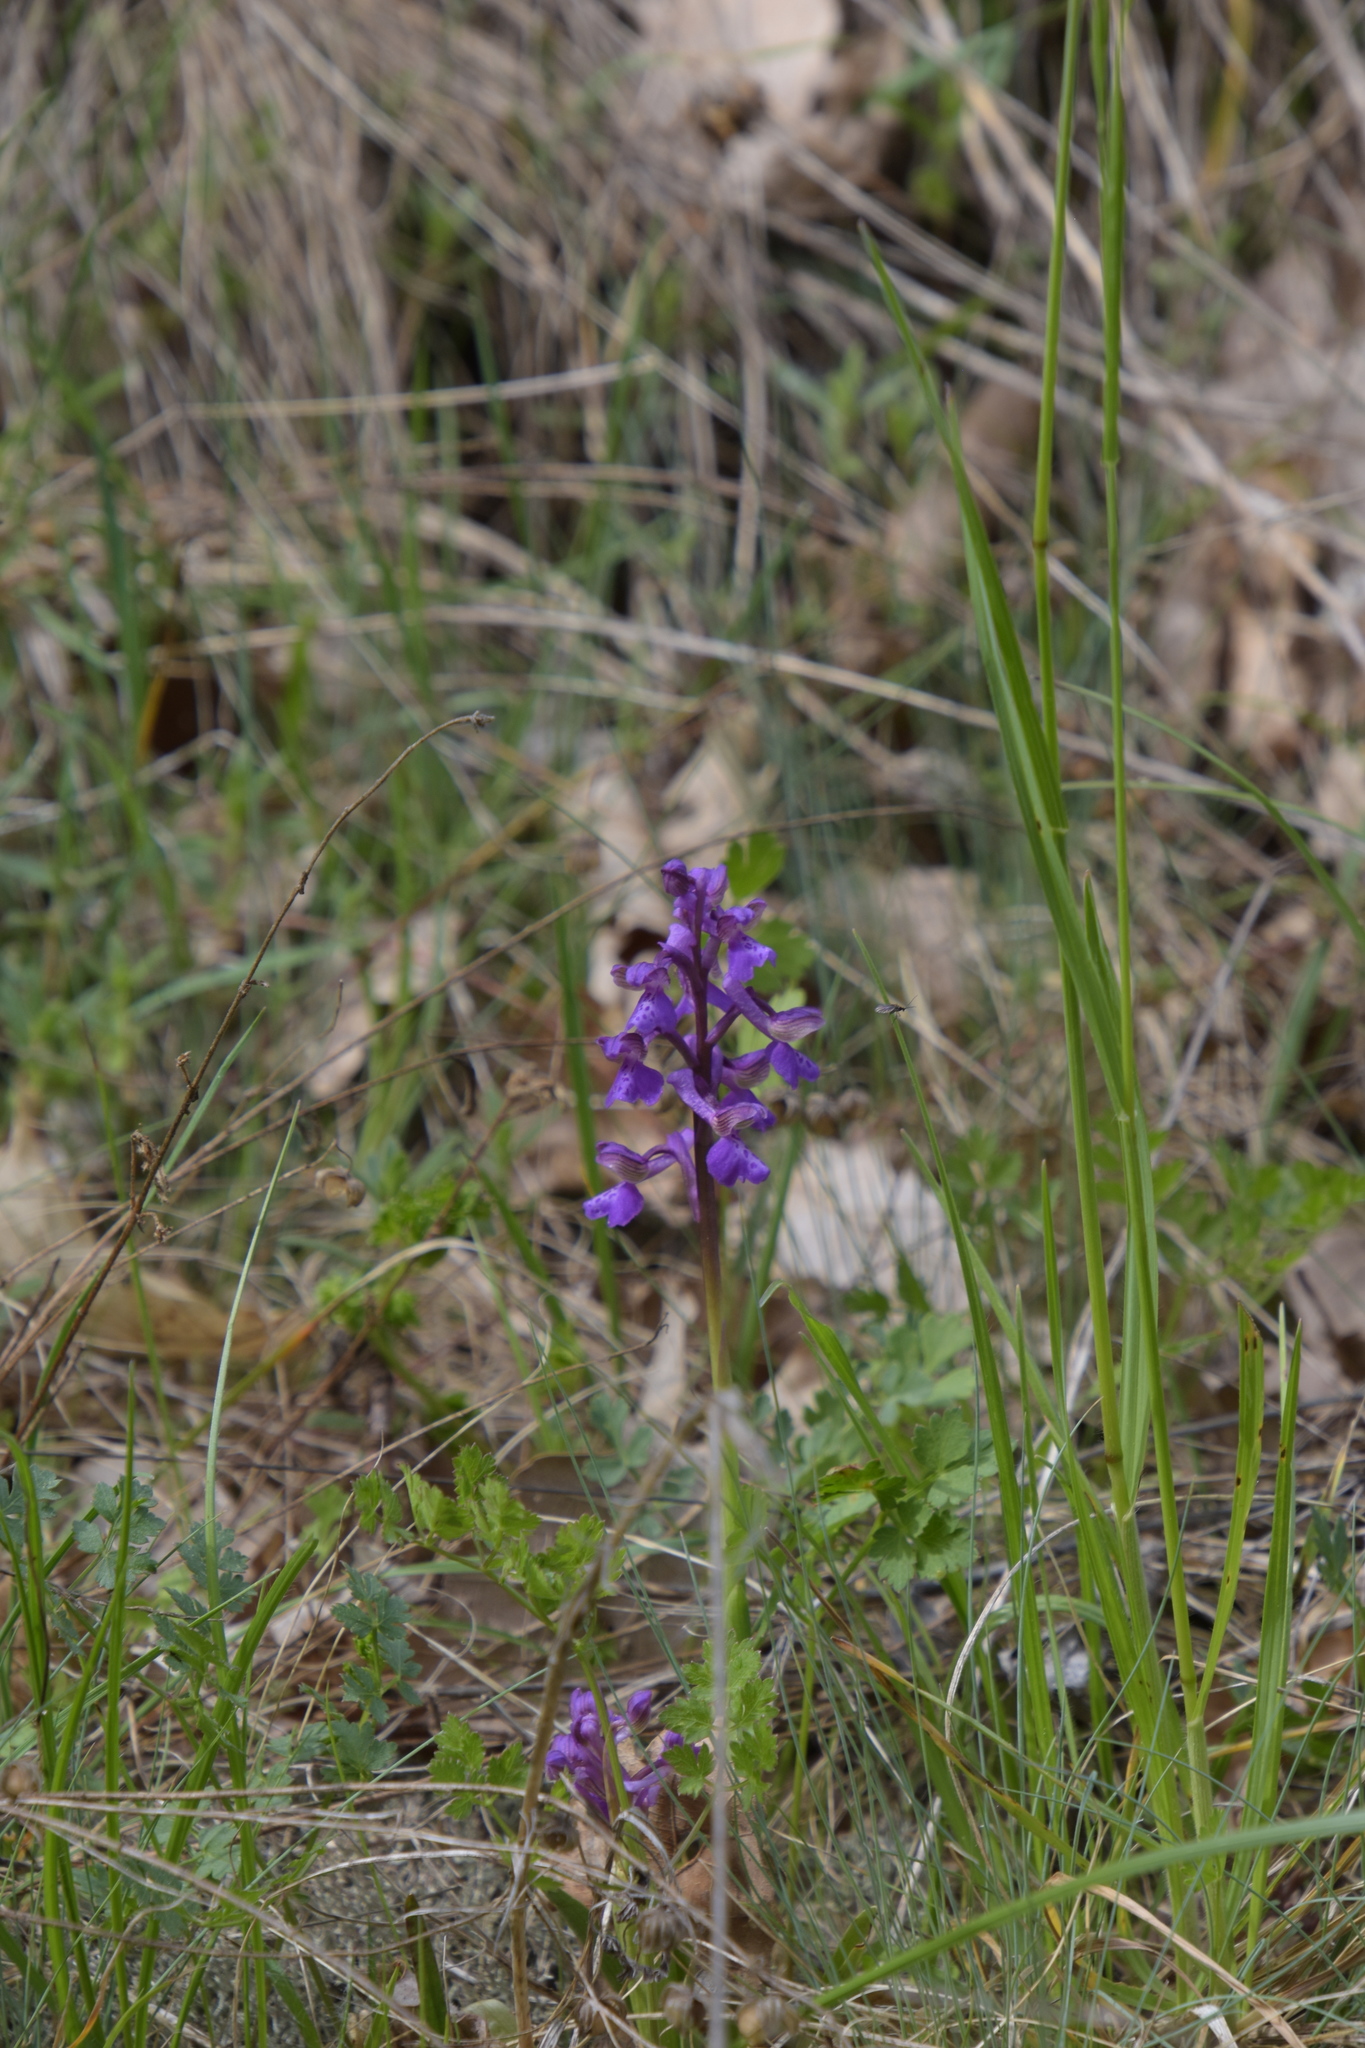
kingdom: Plantae
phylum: Tracheophyta
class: Liliopsida
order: Asparagales
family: Orchidaceae
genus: Anacamptis
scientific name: Anacamptis morio
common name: Green-winged orchid
